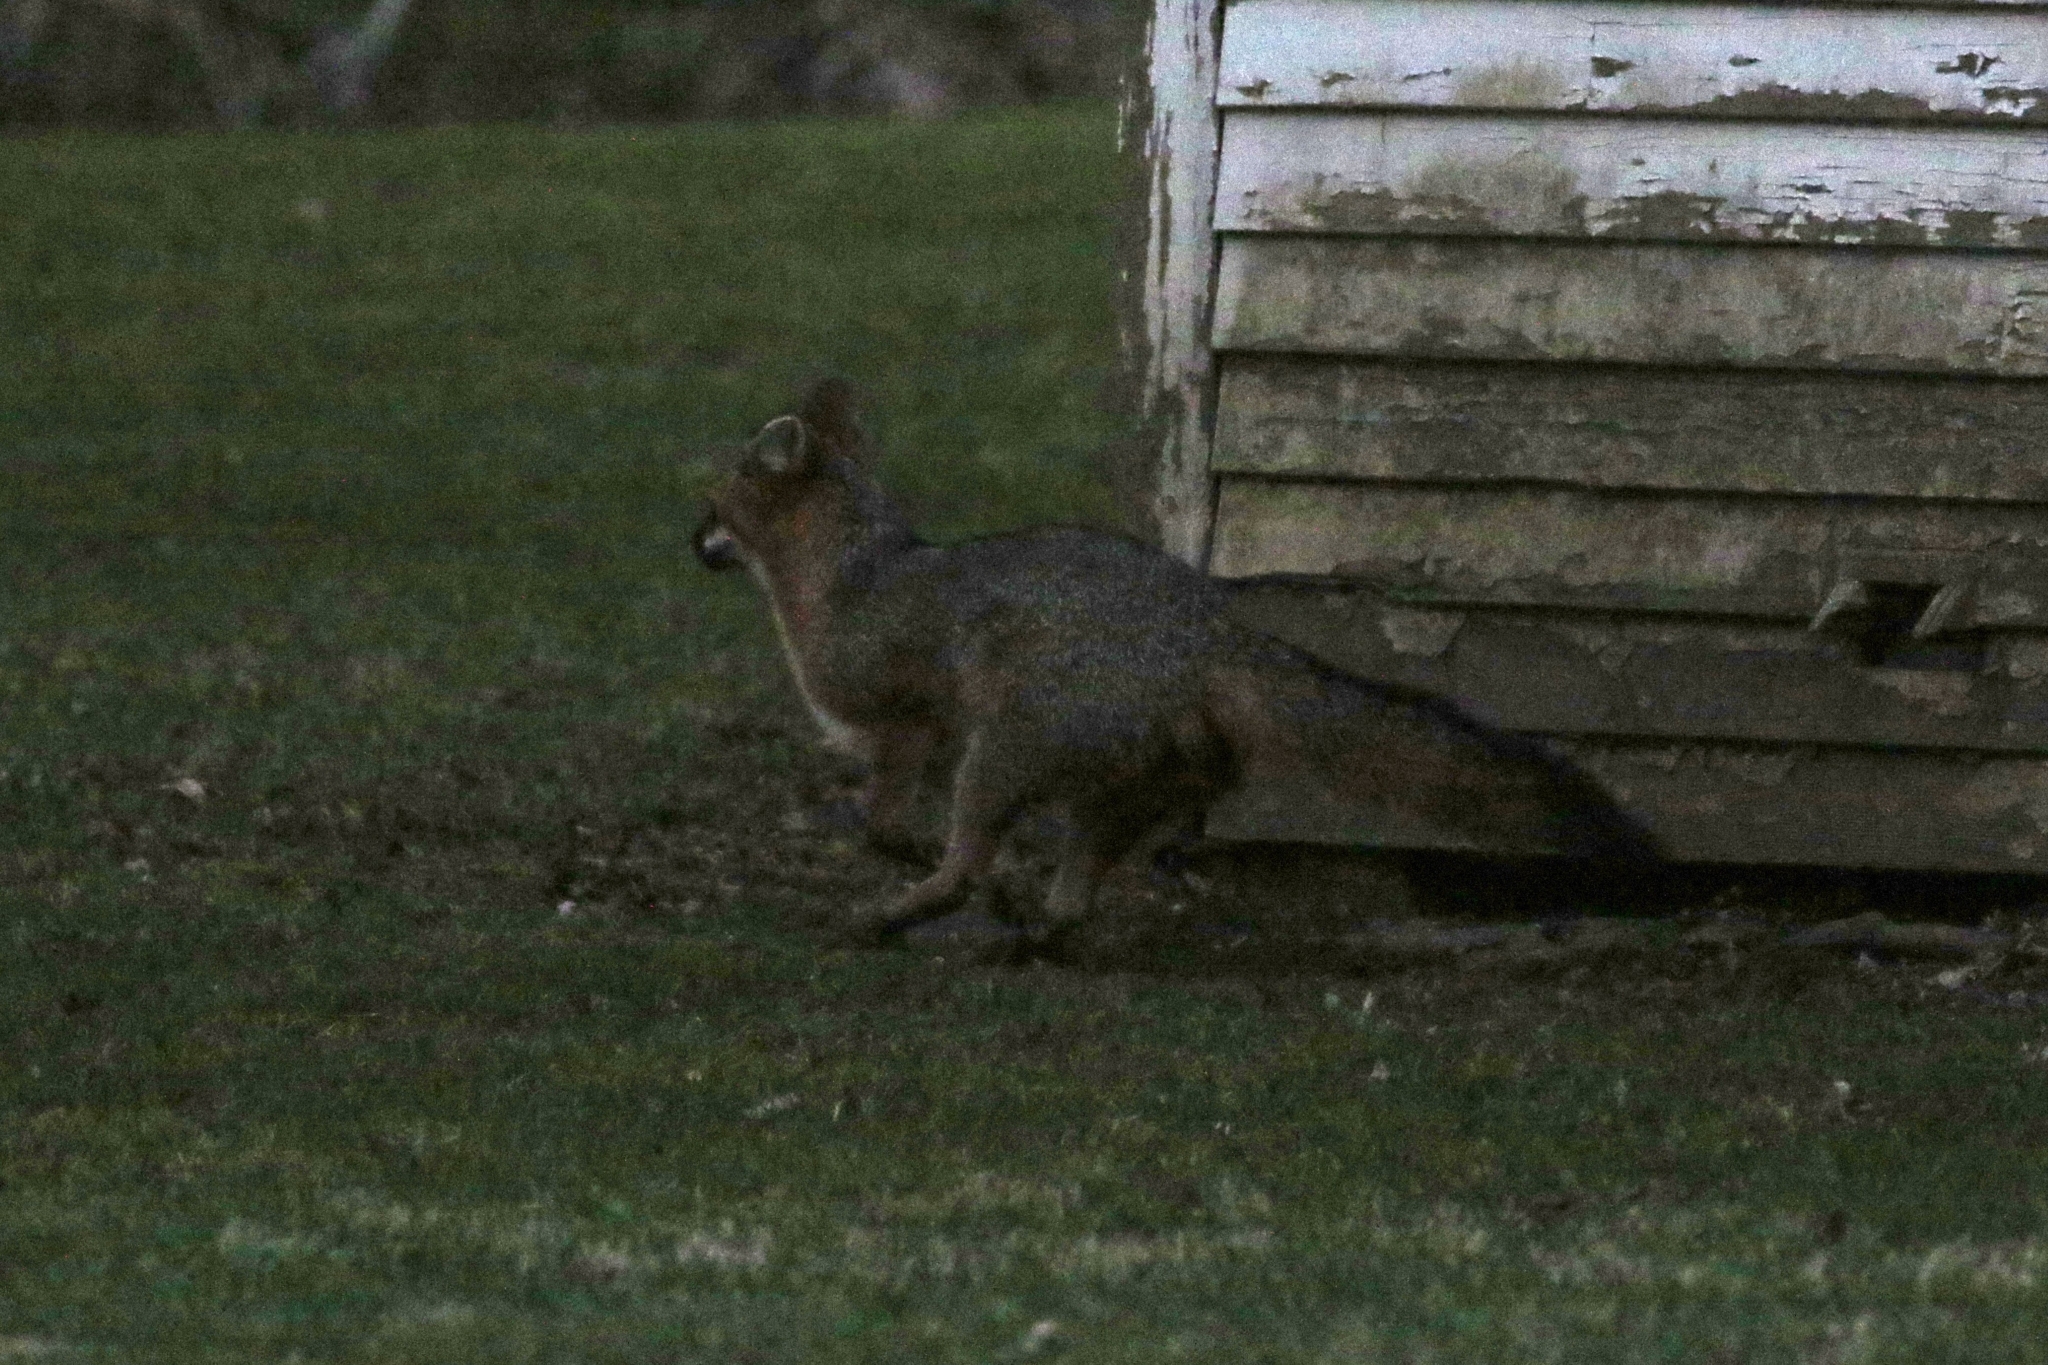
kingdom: Animalia
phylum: Chordata
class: Mammalia
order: Carnivora
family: Canidae
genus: Urocyon
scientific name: Urocyon cinereoargenteus
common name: Gray fox
